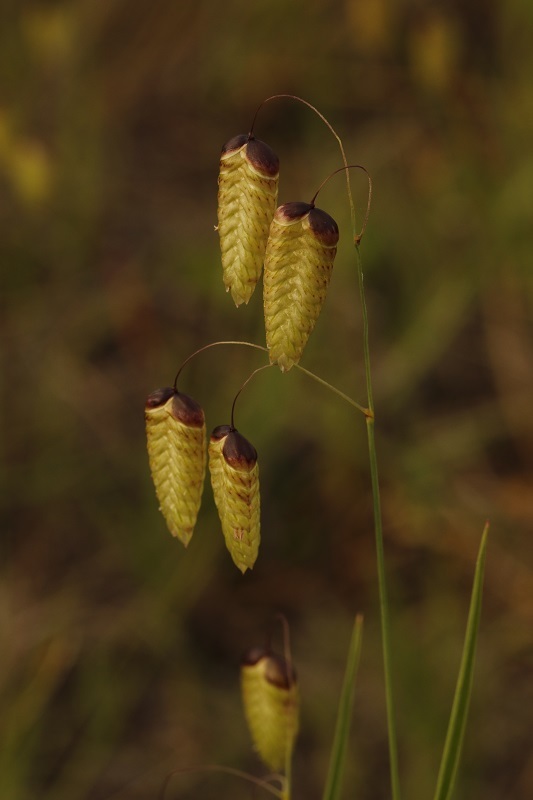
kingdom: Plantae
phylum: Tracheophyta
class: Liliopsida
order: Poales
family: Poaceae
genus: Briza
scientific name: Briza maxima
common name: Big quakinggrass
